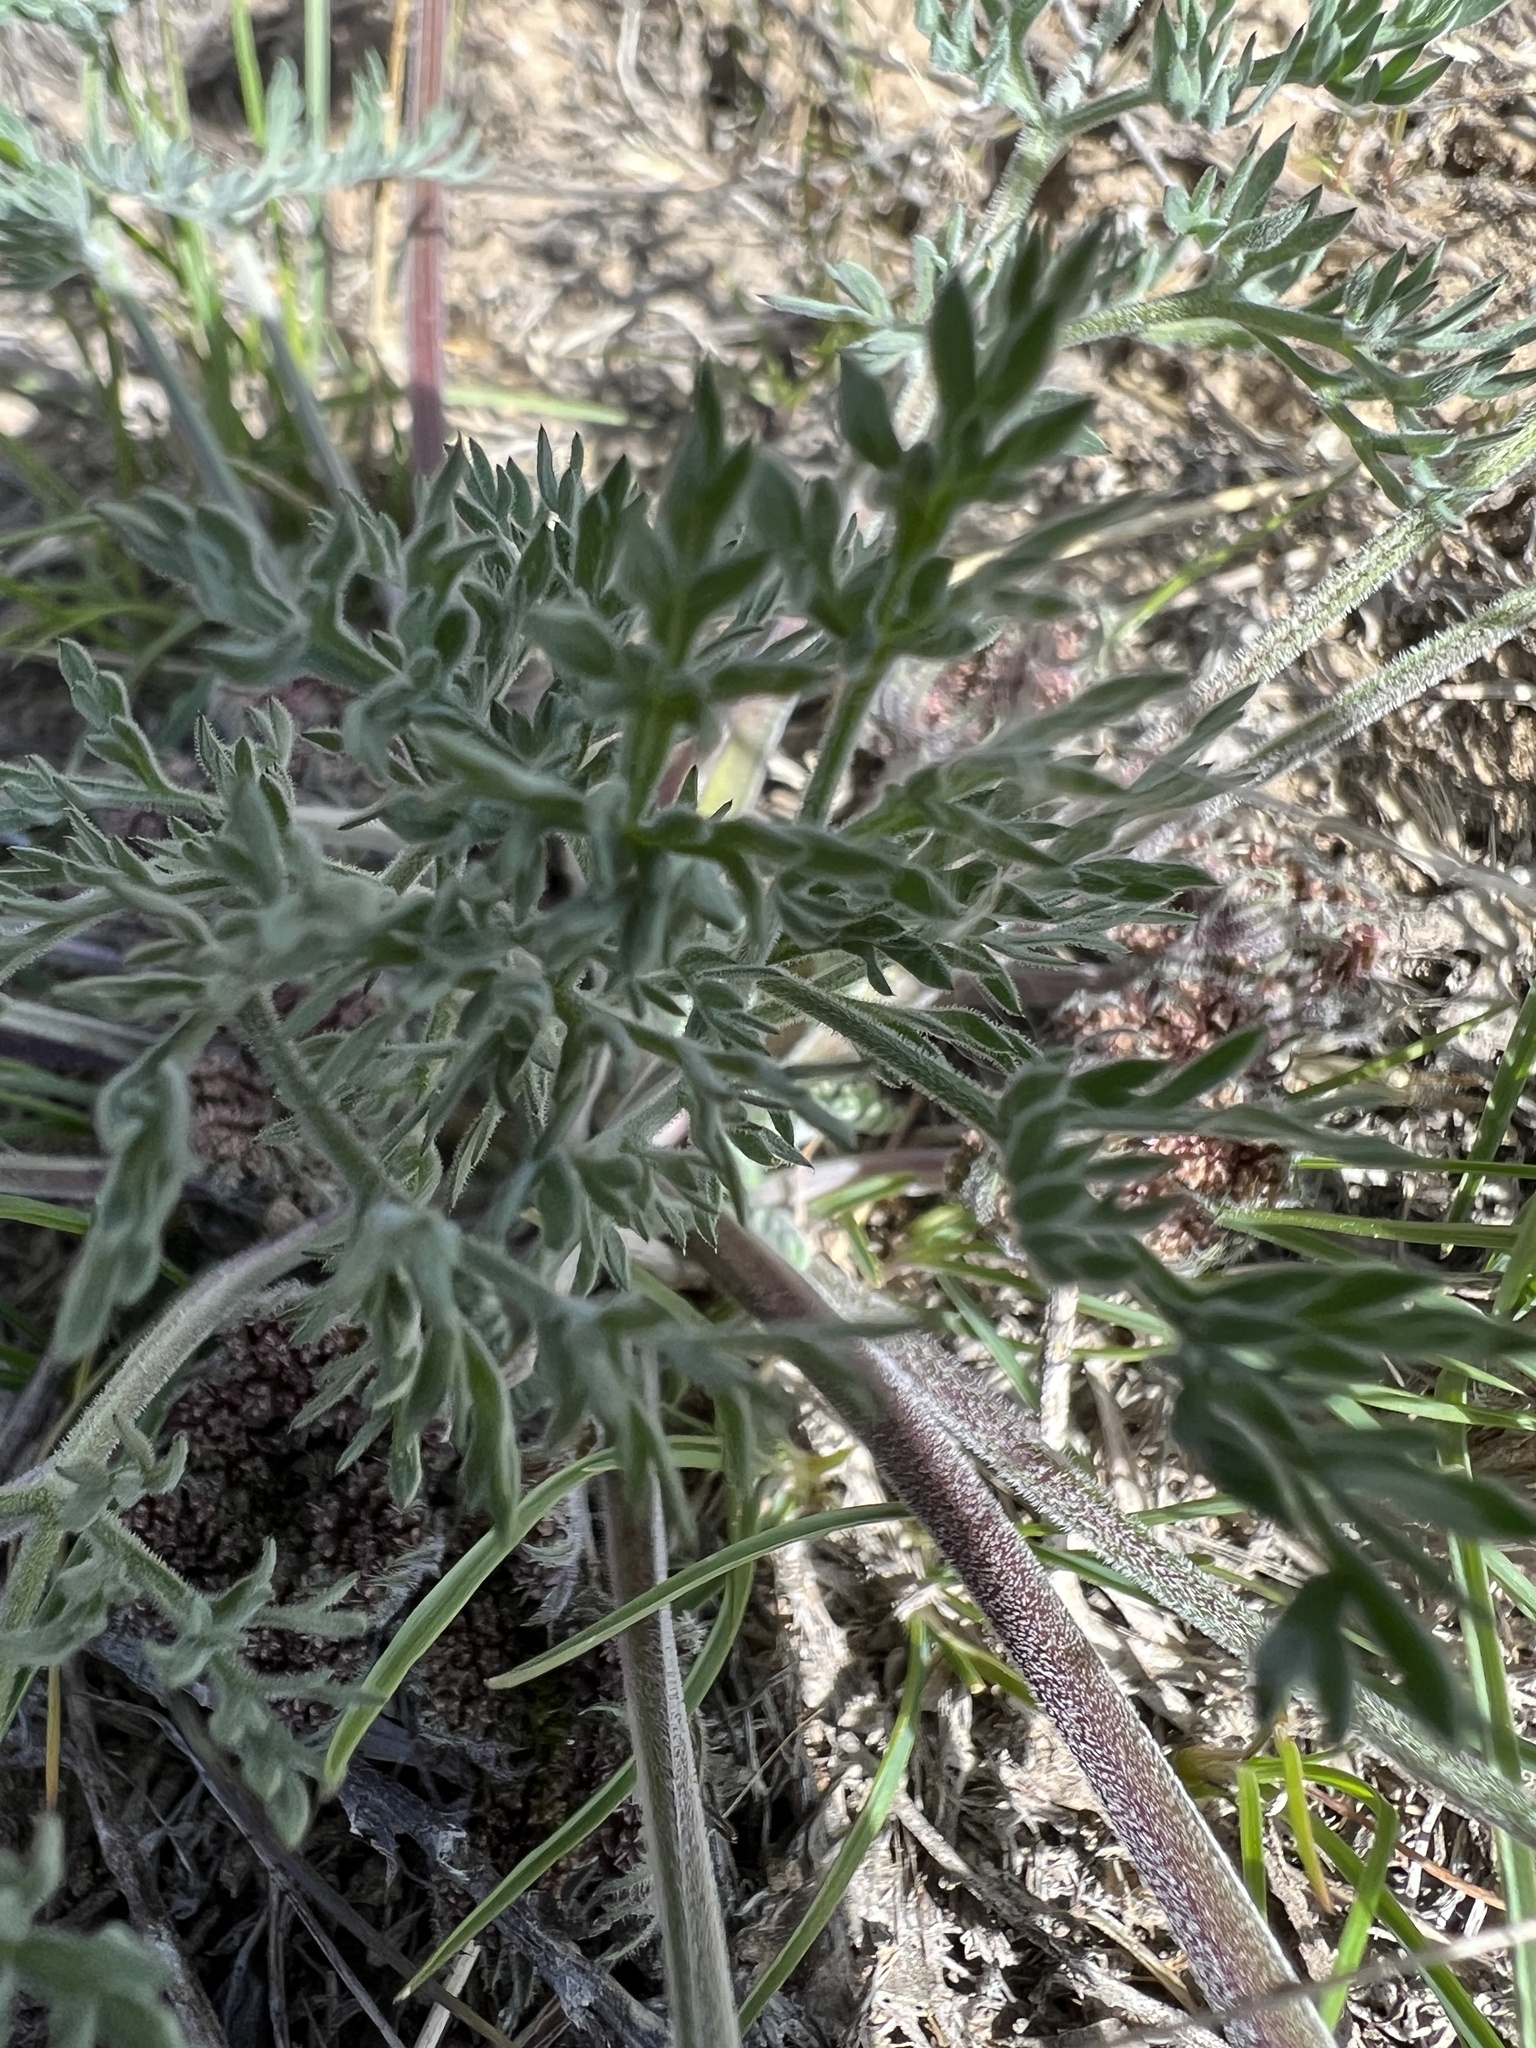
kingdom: Plantae
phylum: Tracheophyta
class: Magnoliopsida
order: Apiales
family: Apiaceae
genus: Lomatium
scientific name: Lomatium macrocarpum
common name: Big-seed biscuitroot
